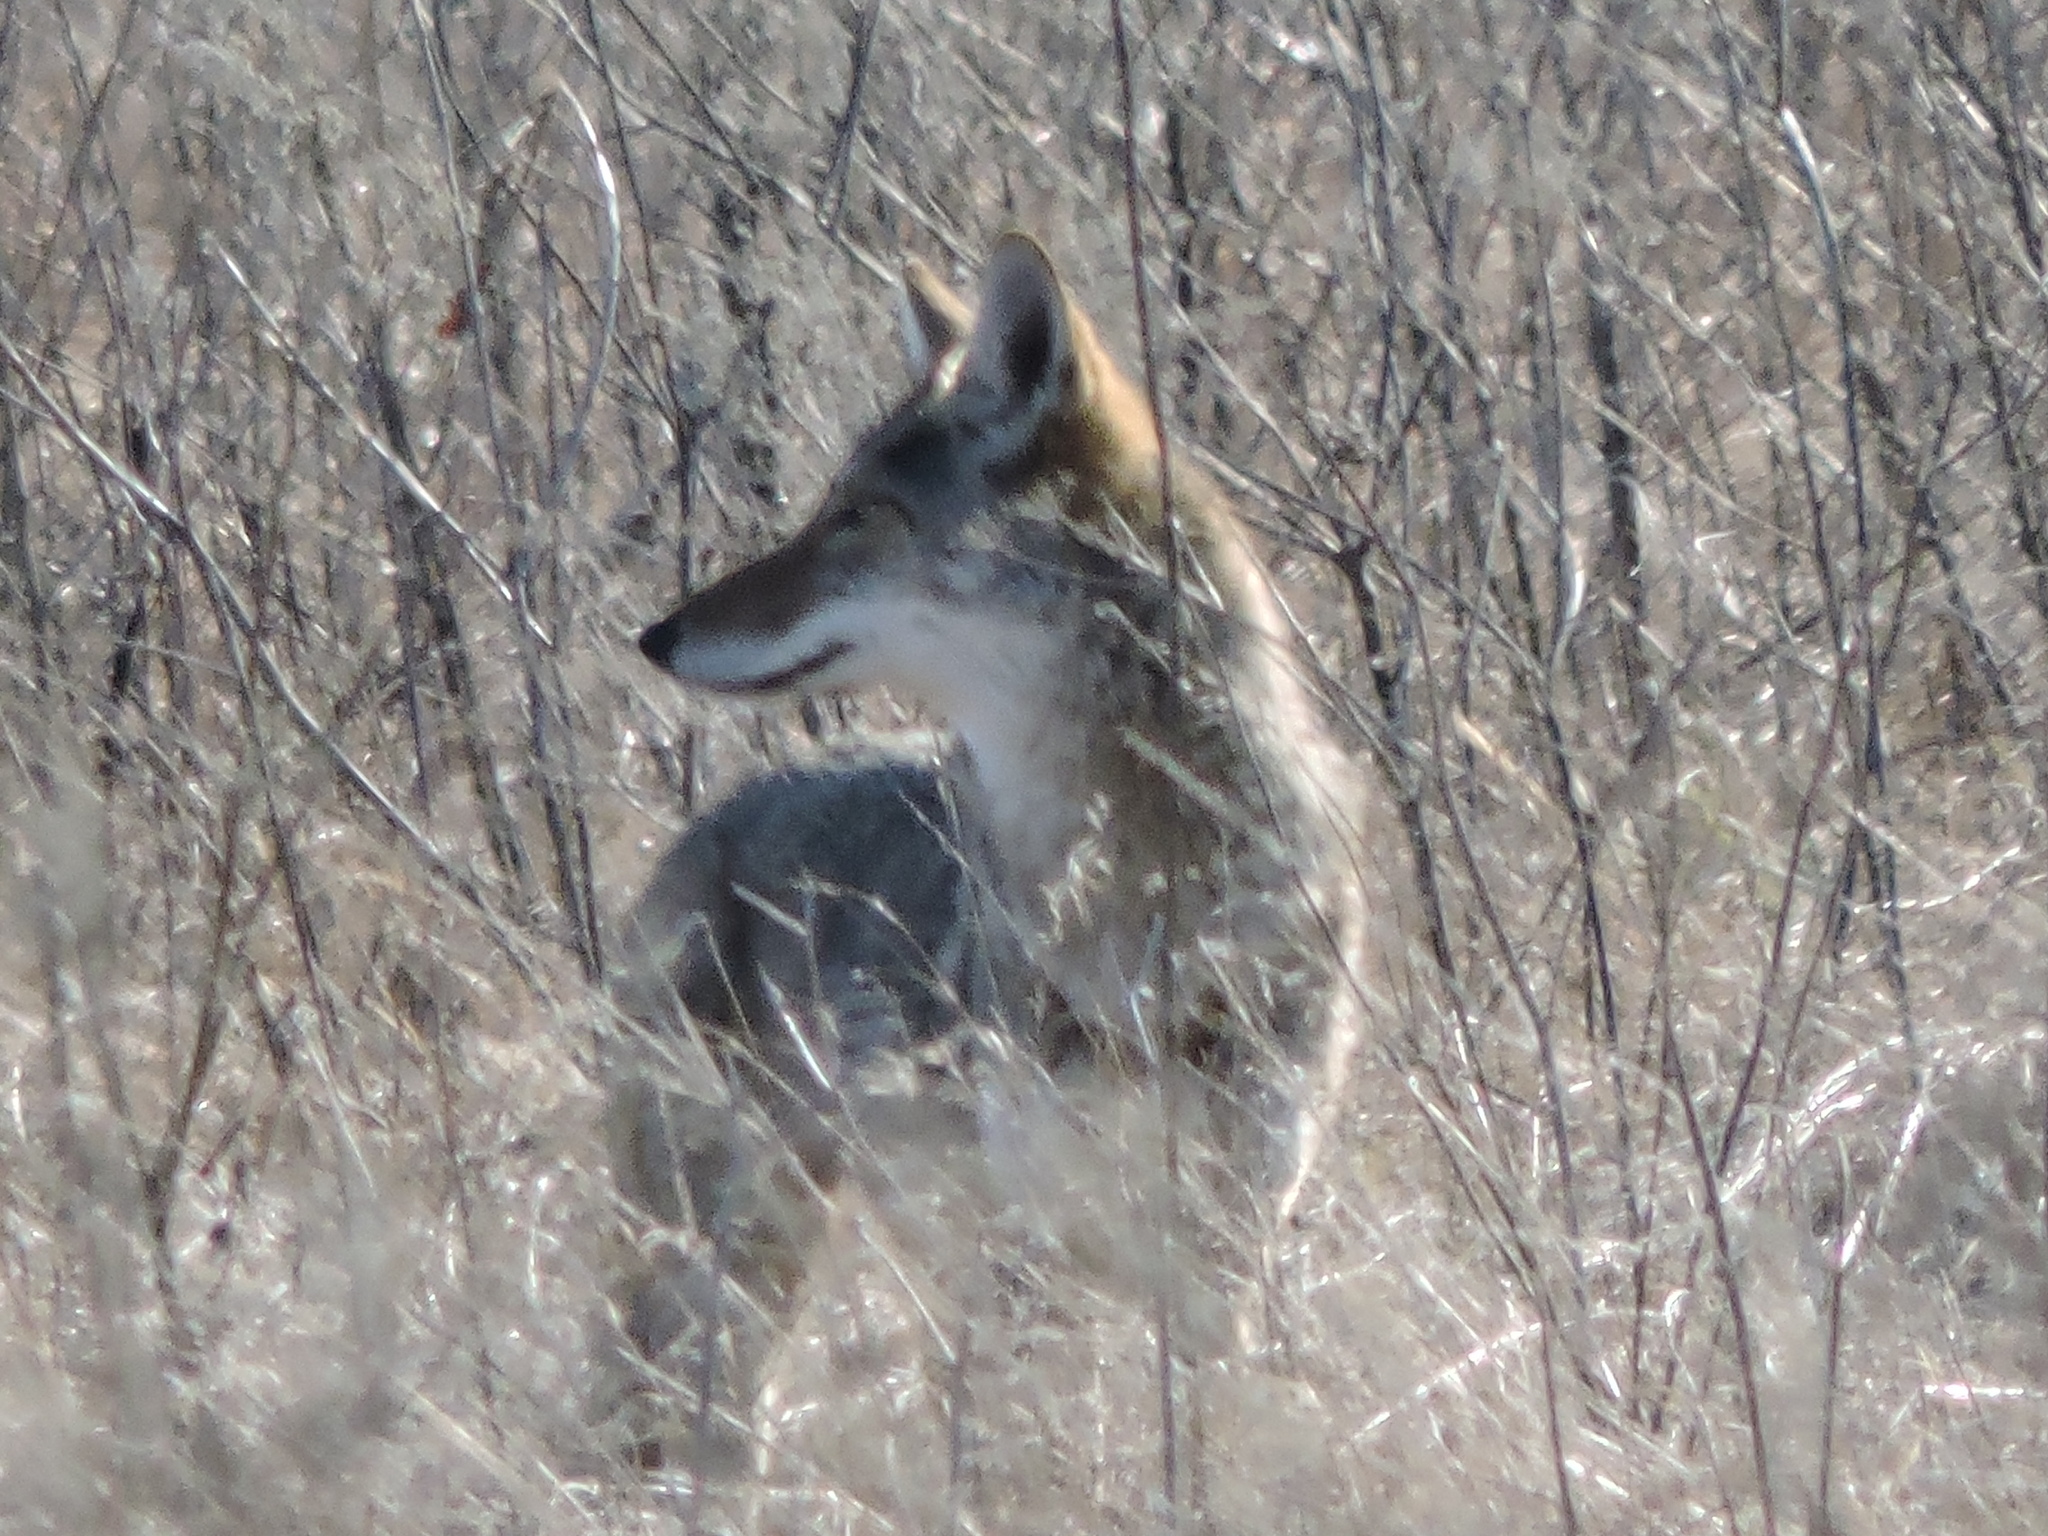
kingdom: Animalia
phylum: Chordata
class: Mammalia
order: Carnivora
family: Canidae
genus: Canis
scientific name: Canis latrans
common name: Coyote
